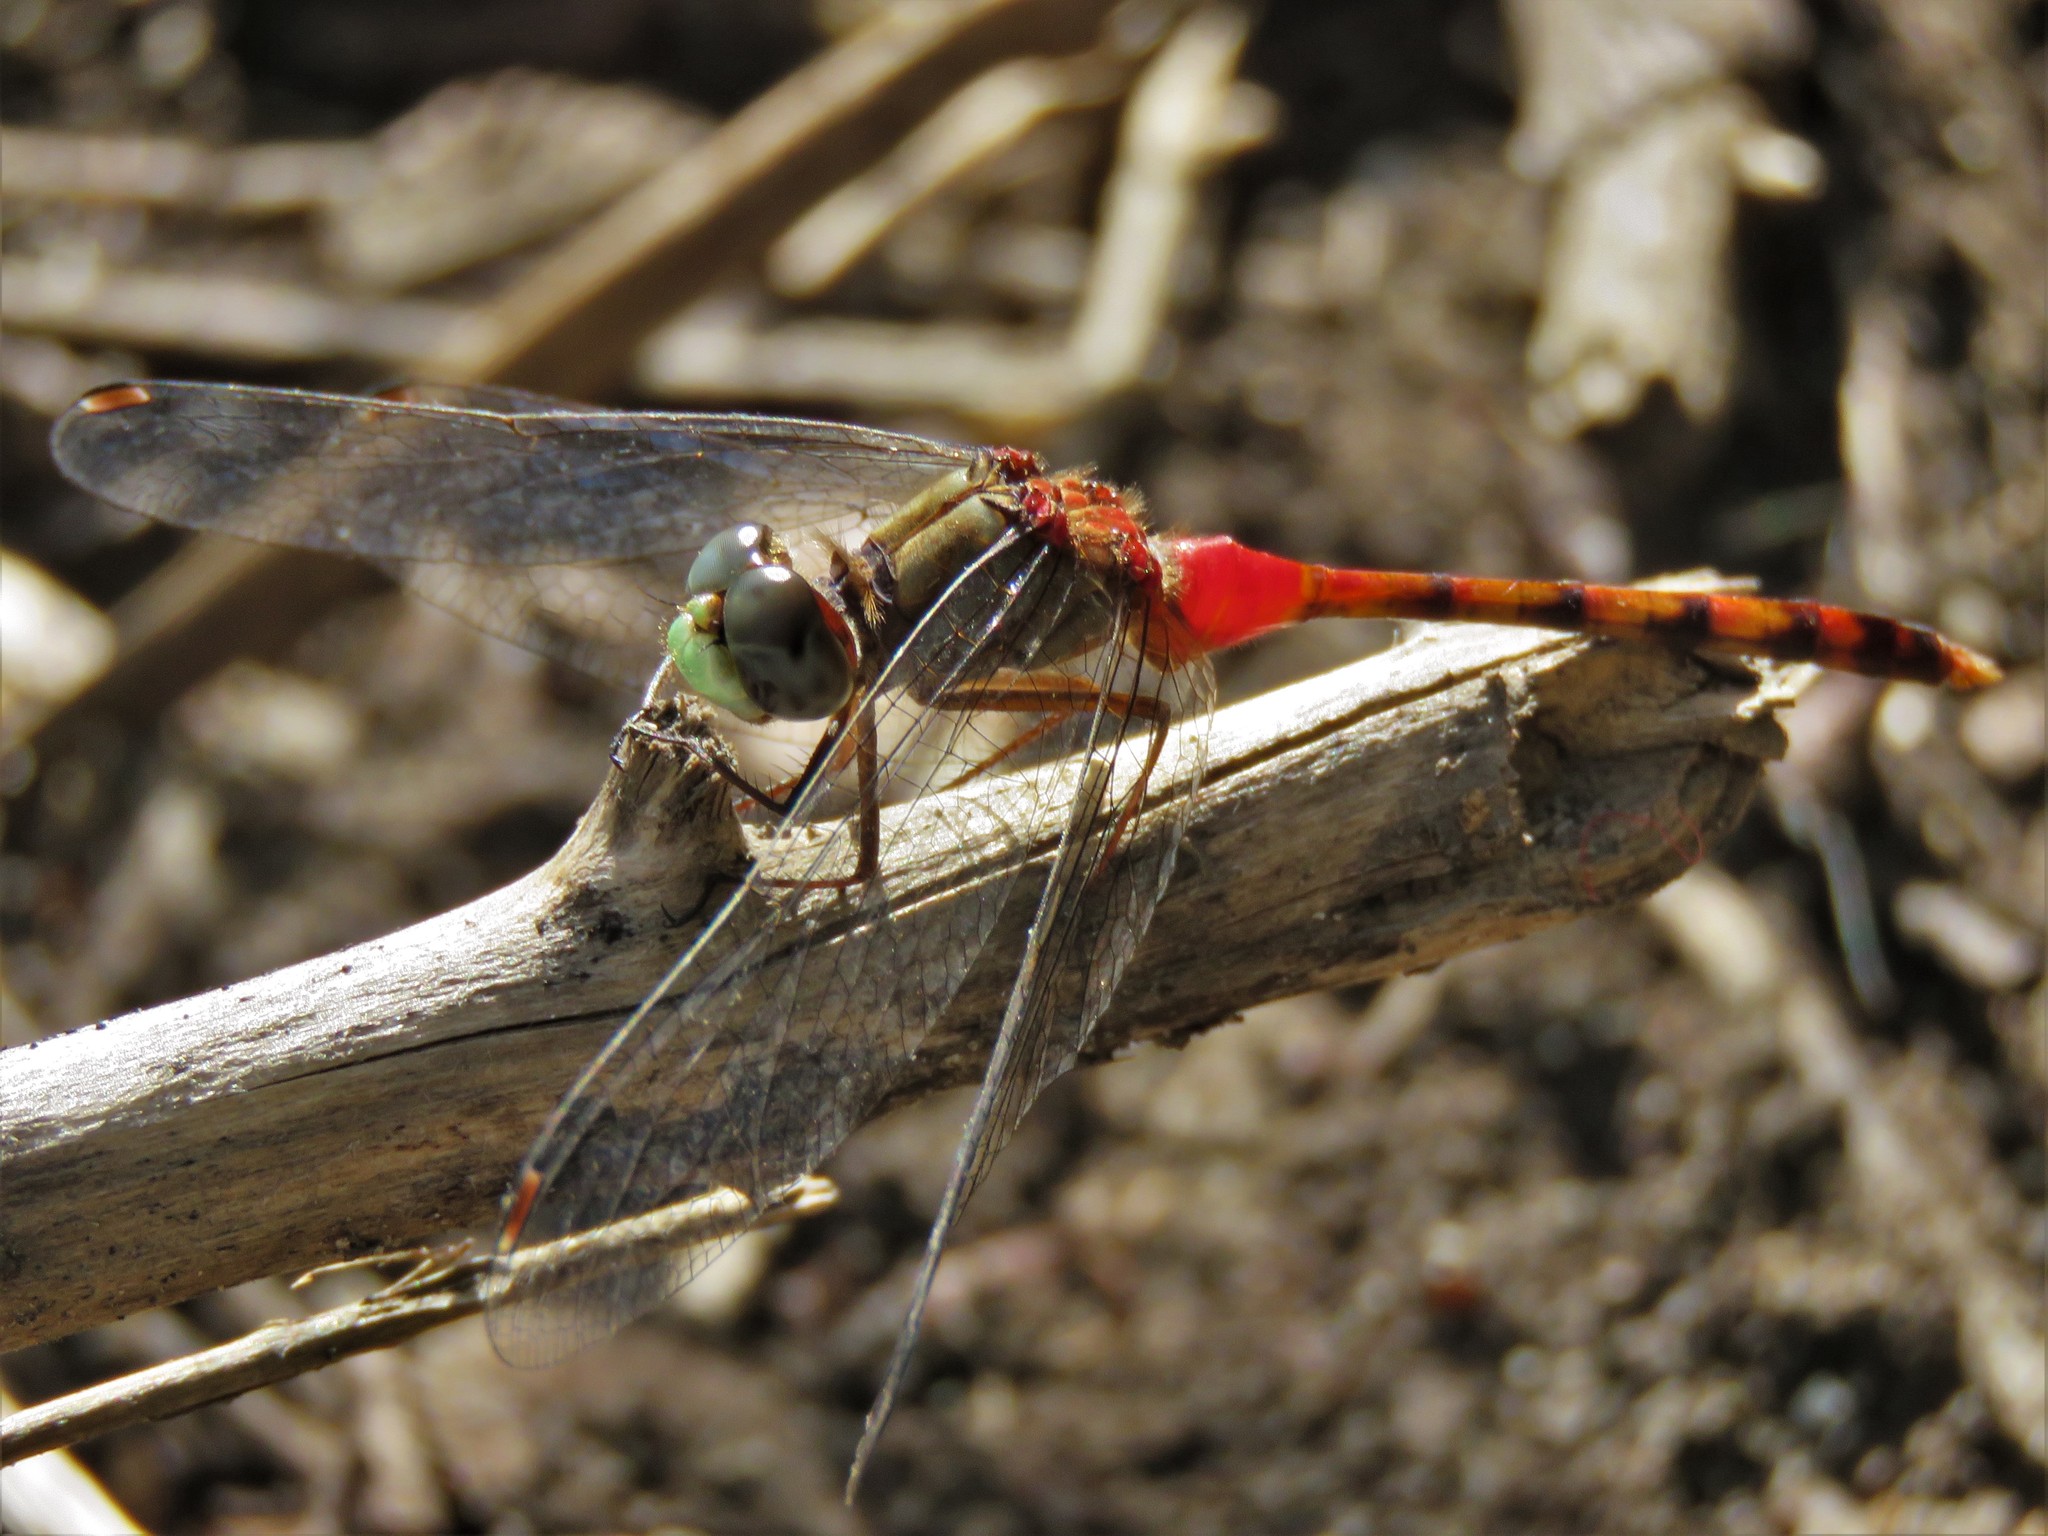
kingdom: Animalia
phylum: Arthropoda
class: Insecta
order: Odonata
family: Libellulidae
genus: Sympetrum
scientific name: Sympetrum ambiguum
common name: Blue-faced meadowhawk
